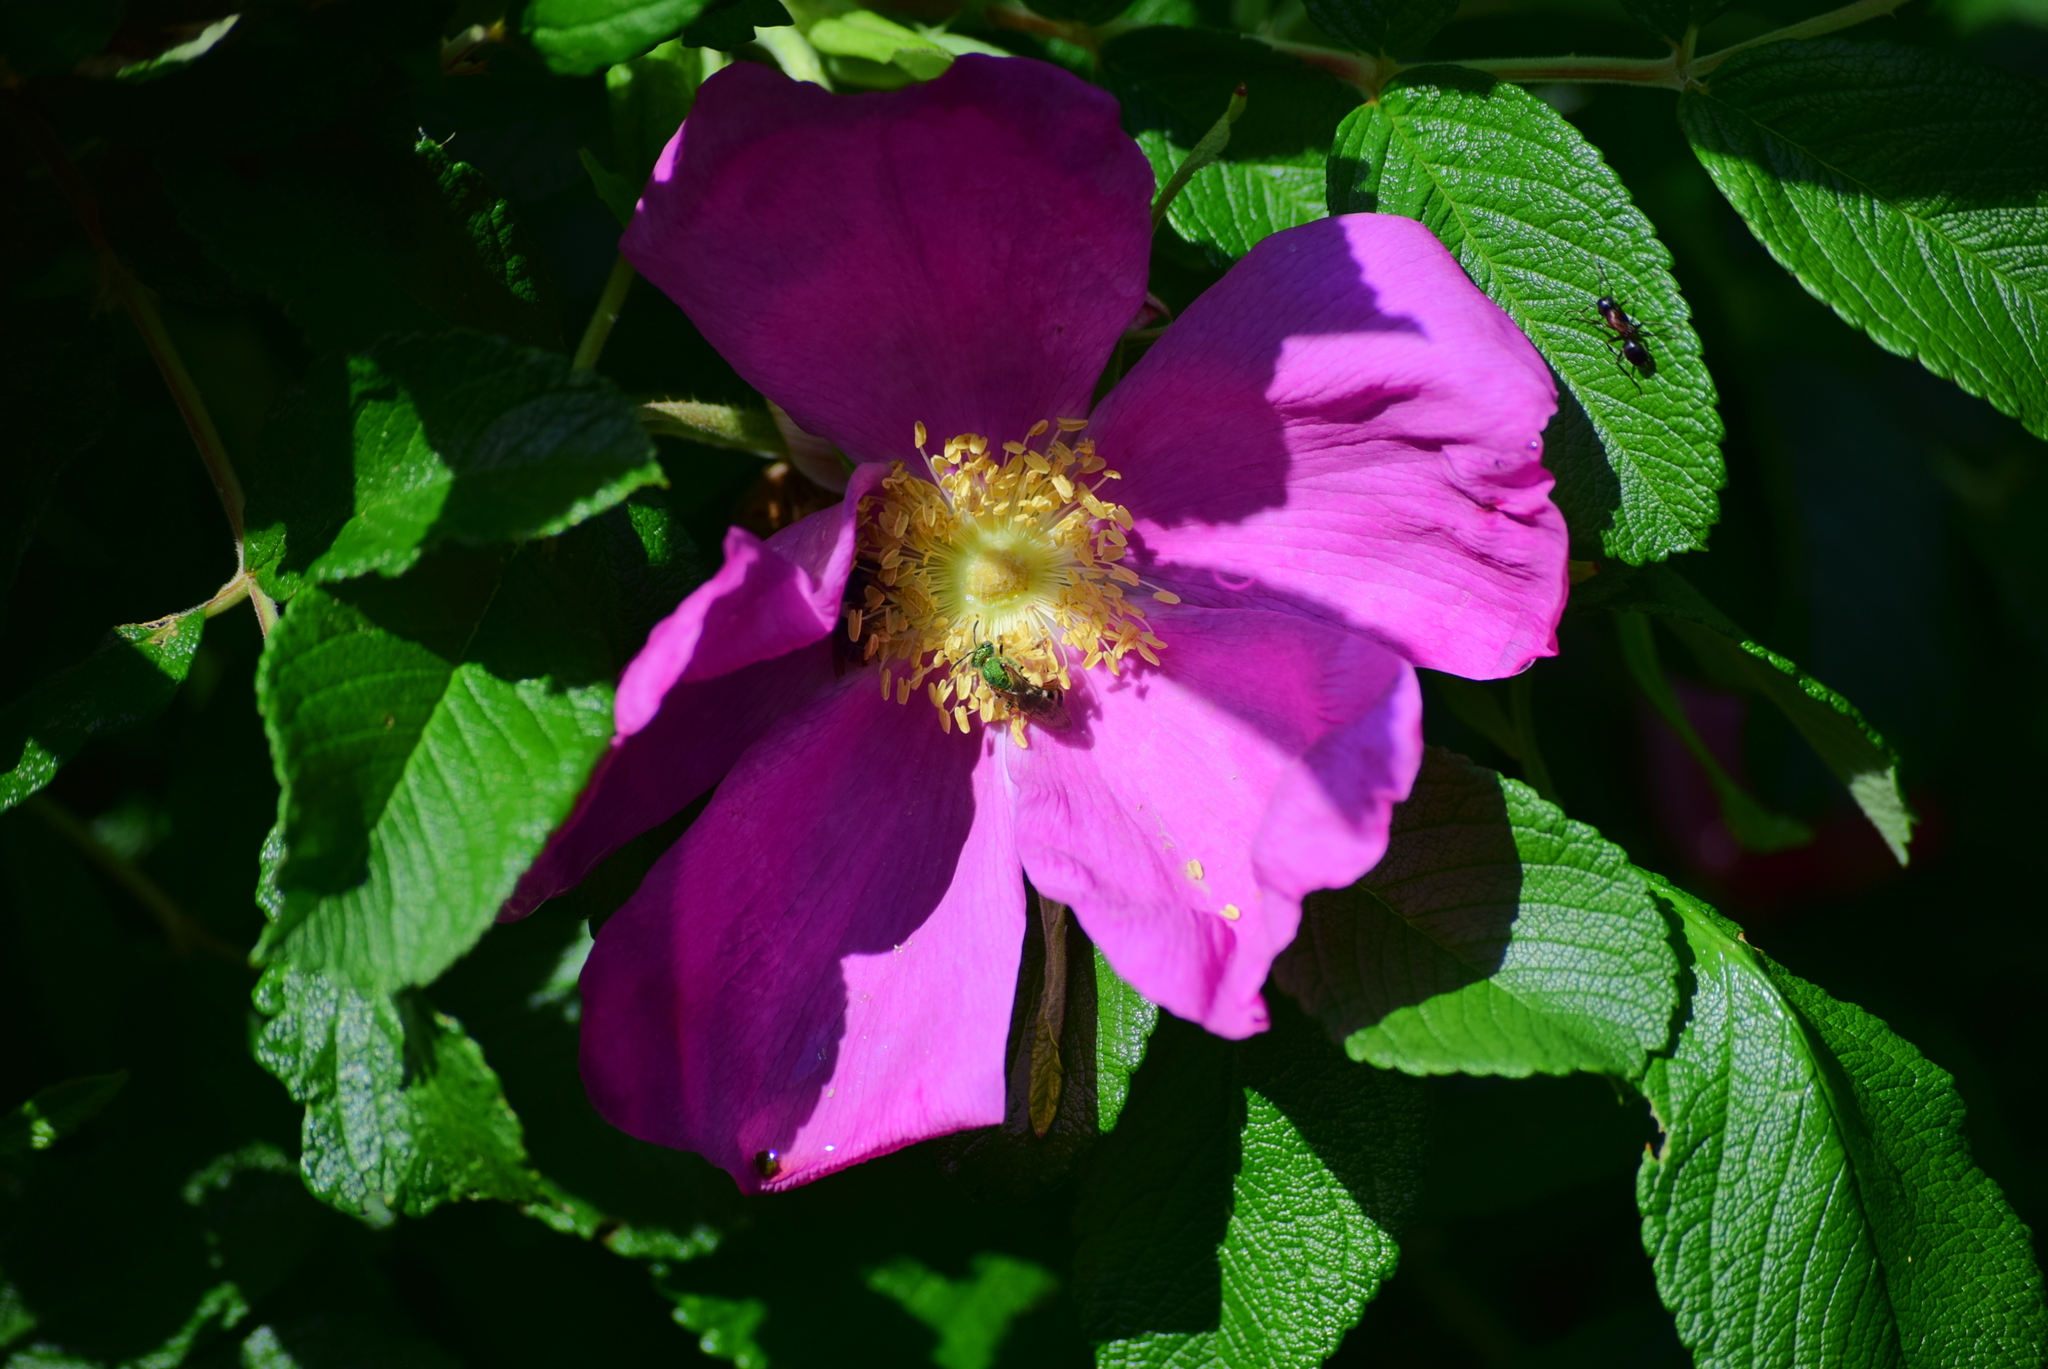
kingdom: Animalia
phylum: Arthropoda
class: Insecta
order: Hymenoptera
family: Halictidae
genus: Agapostemon
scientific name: Agapostemon virescens
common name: Bicolored striped sweat bee
